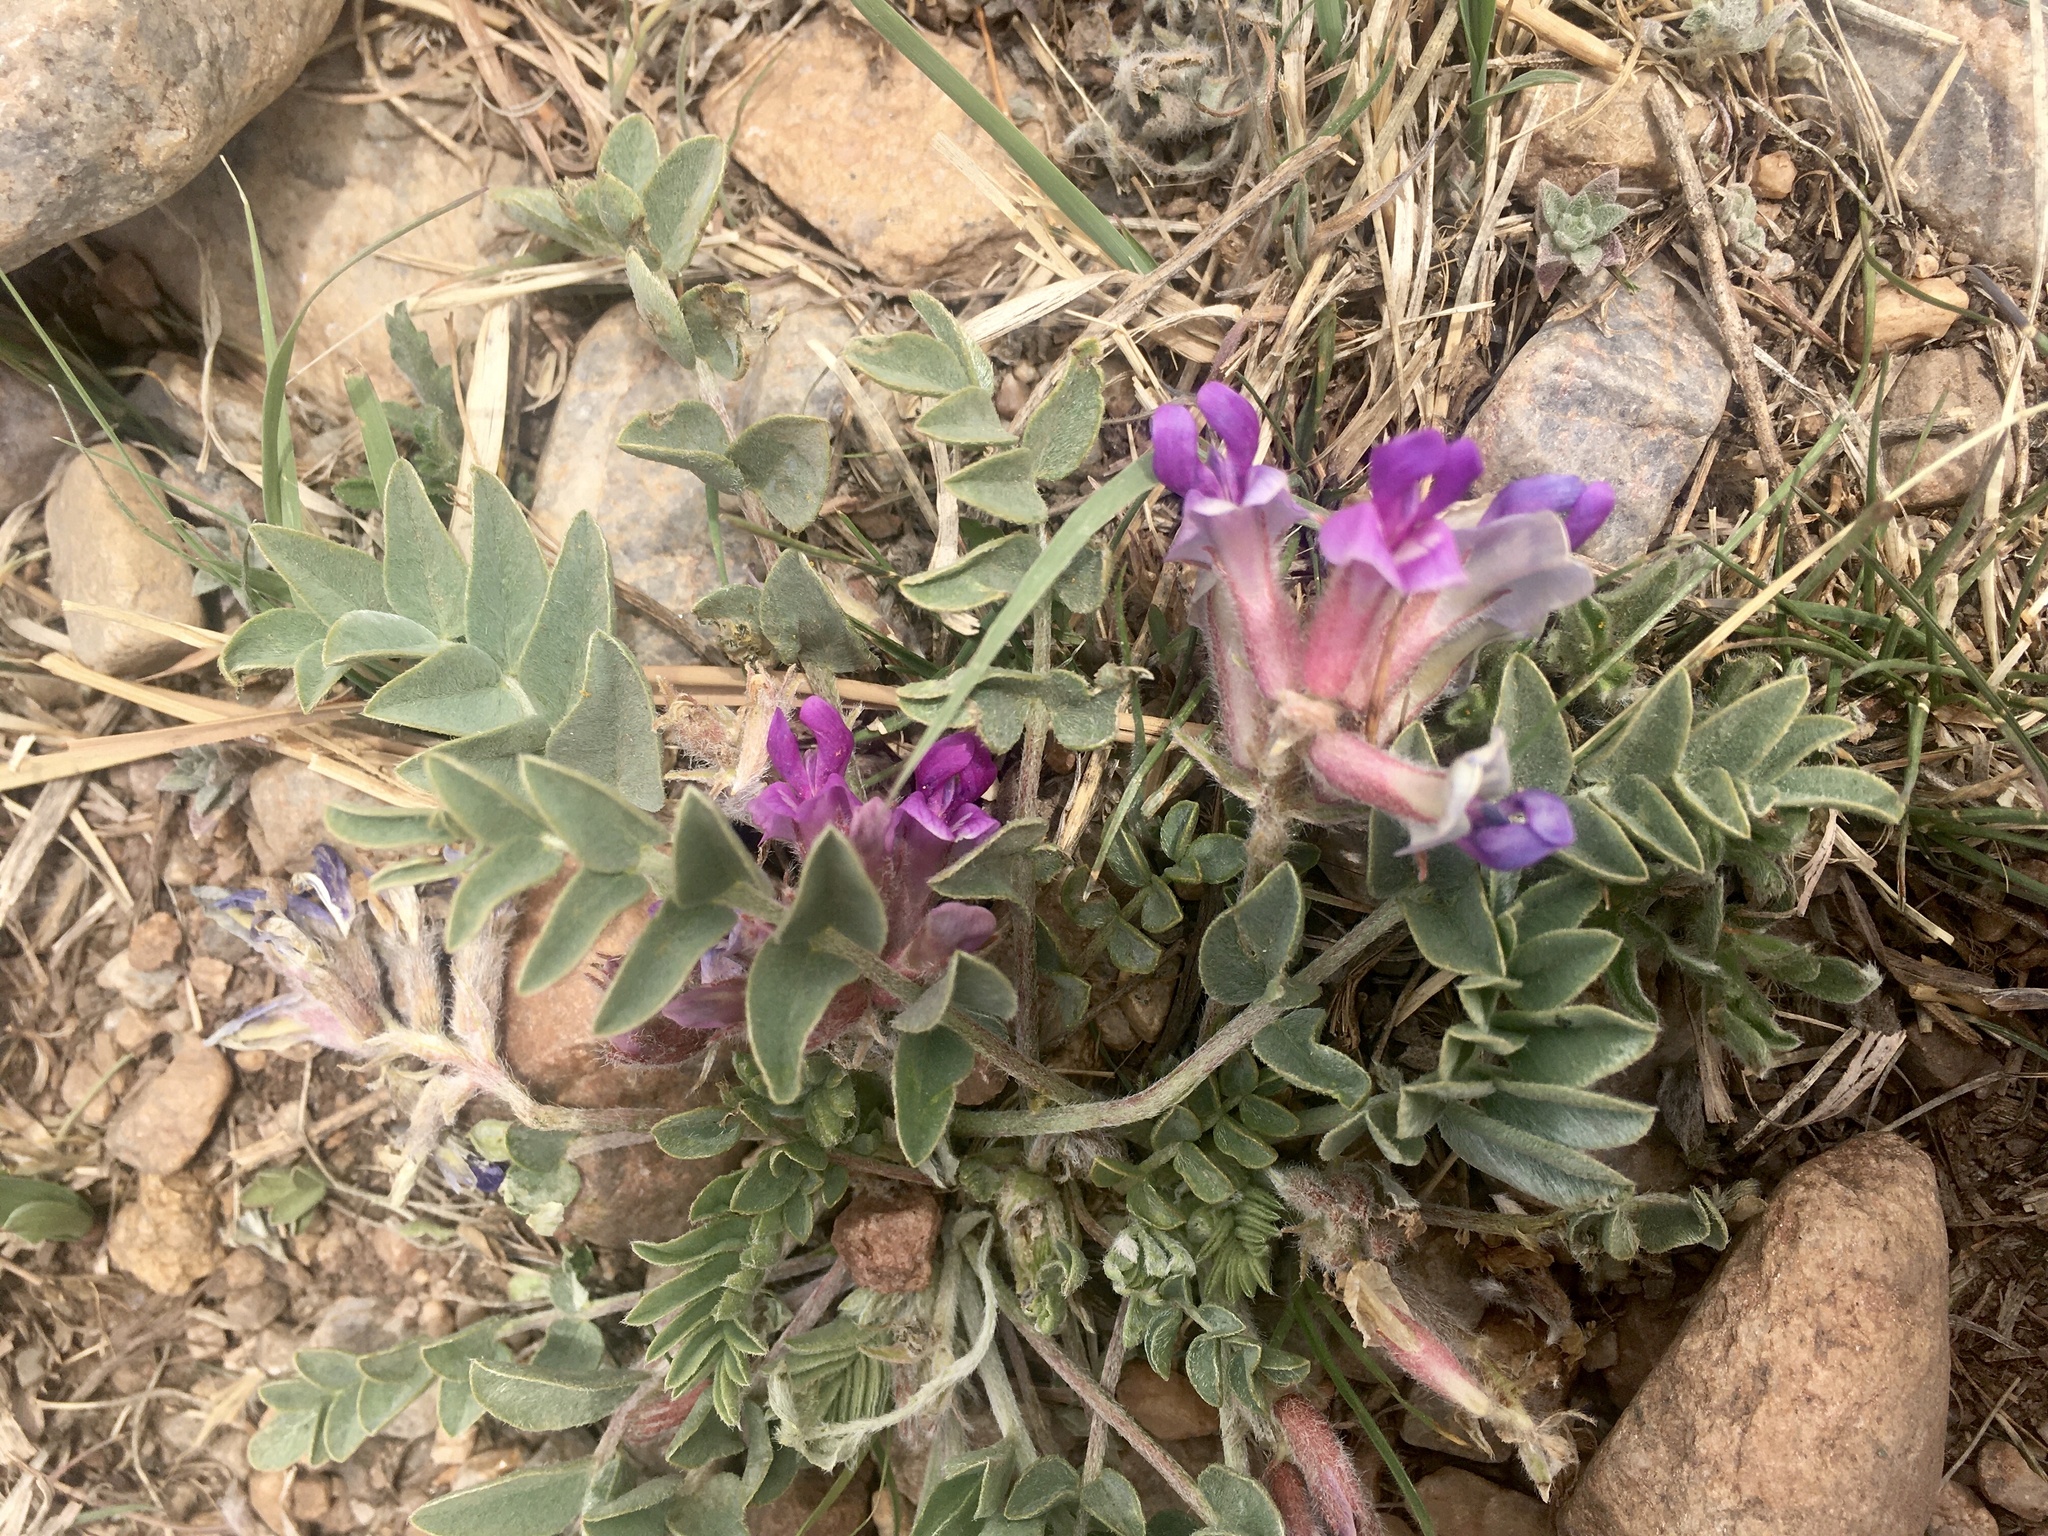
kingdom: Plantae
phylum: Tracheophyta
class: Magnoliopsida
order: Fabales
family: Fabaceae
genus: Astragalus
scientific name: Astragalus shortianus
